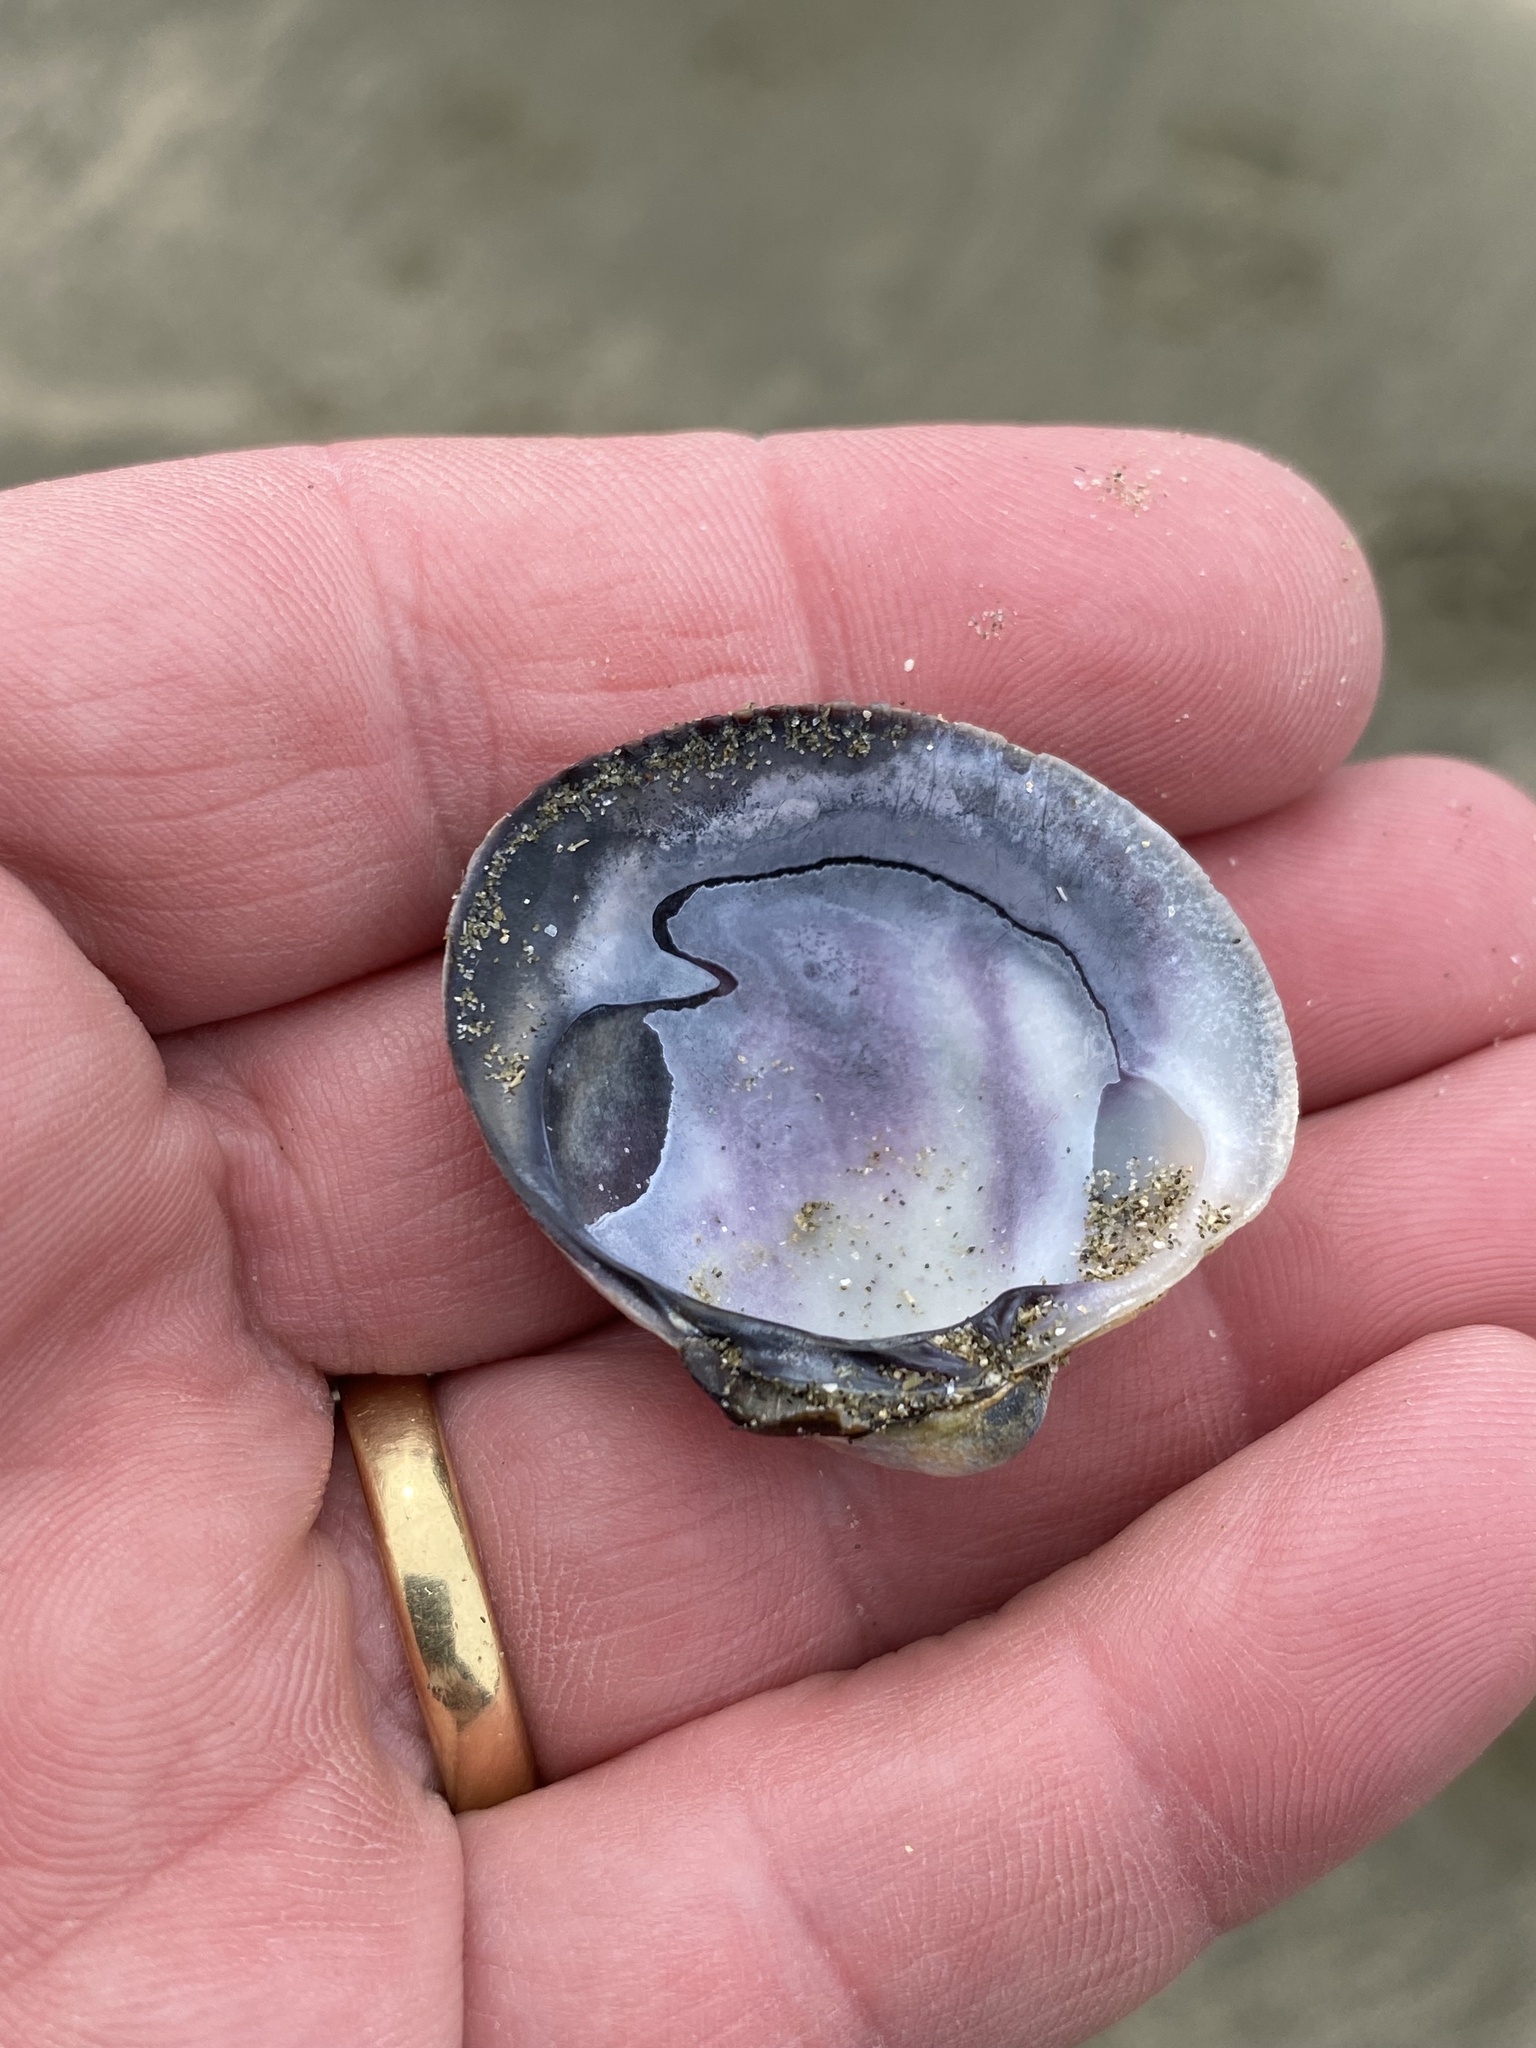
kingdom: Animalia
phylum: Mollusca
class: Bivalvia
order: Venerida
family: Veneridae
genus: Austrovenus
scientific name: Austrovenus stutchburyi
